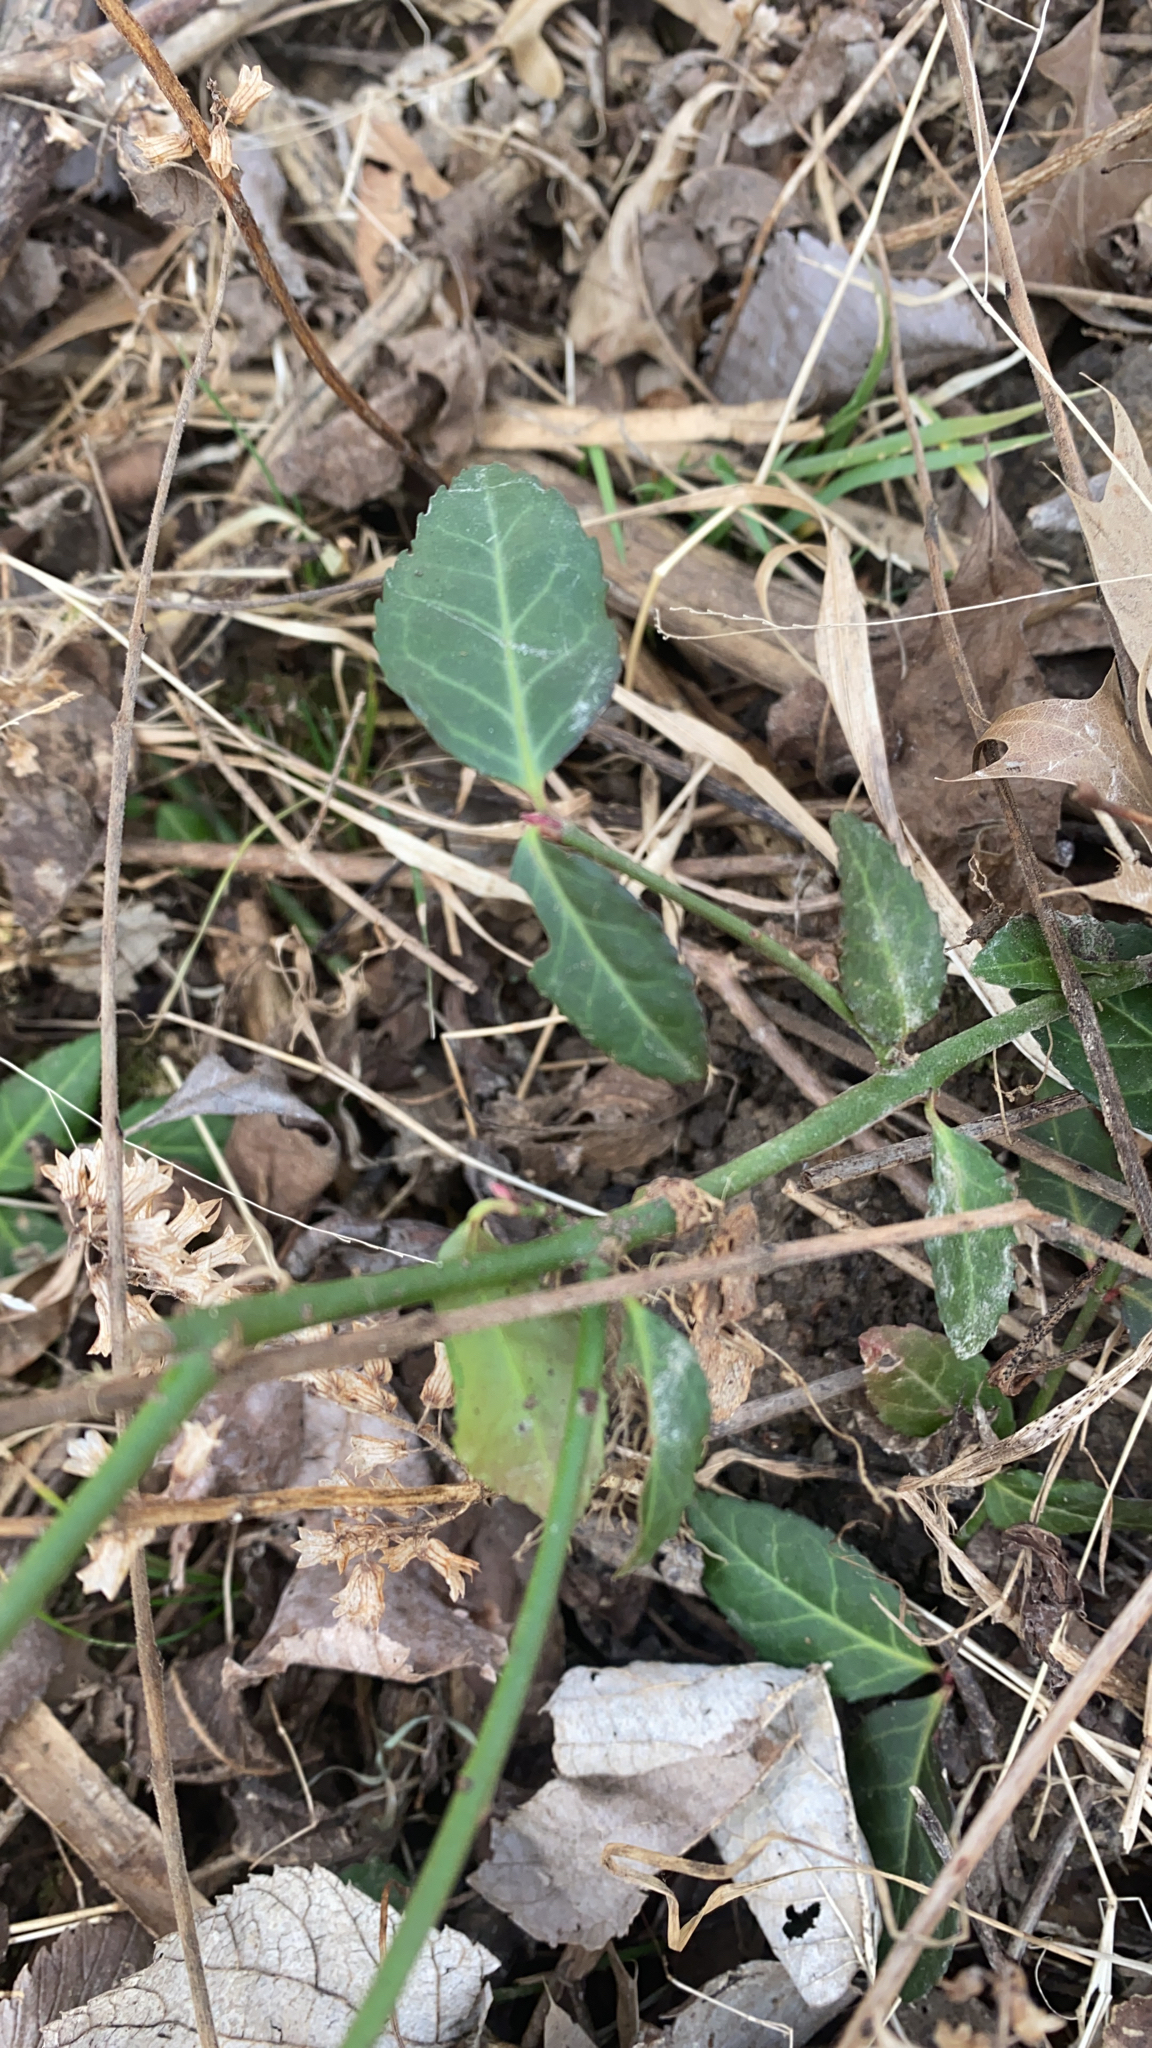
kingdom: Plantae
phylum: Tracheophyta
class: Magnoliopsida
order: Celastrales
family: Celastraceae
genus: Euonymus
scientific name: Euonymus fortunei
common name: Climbing euonymus
